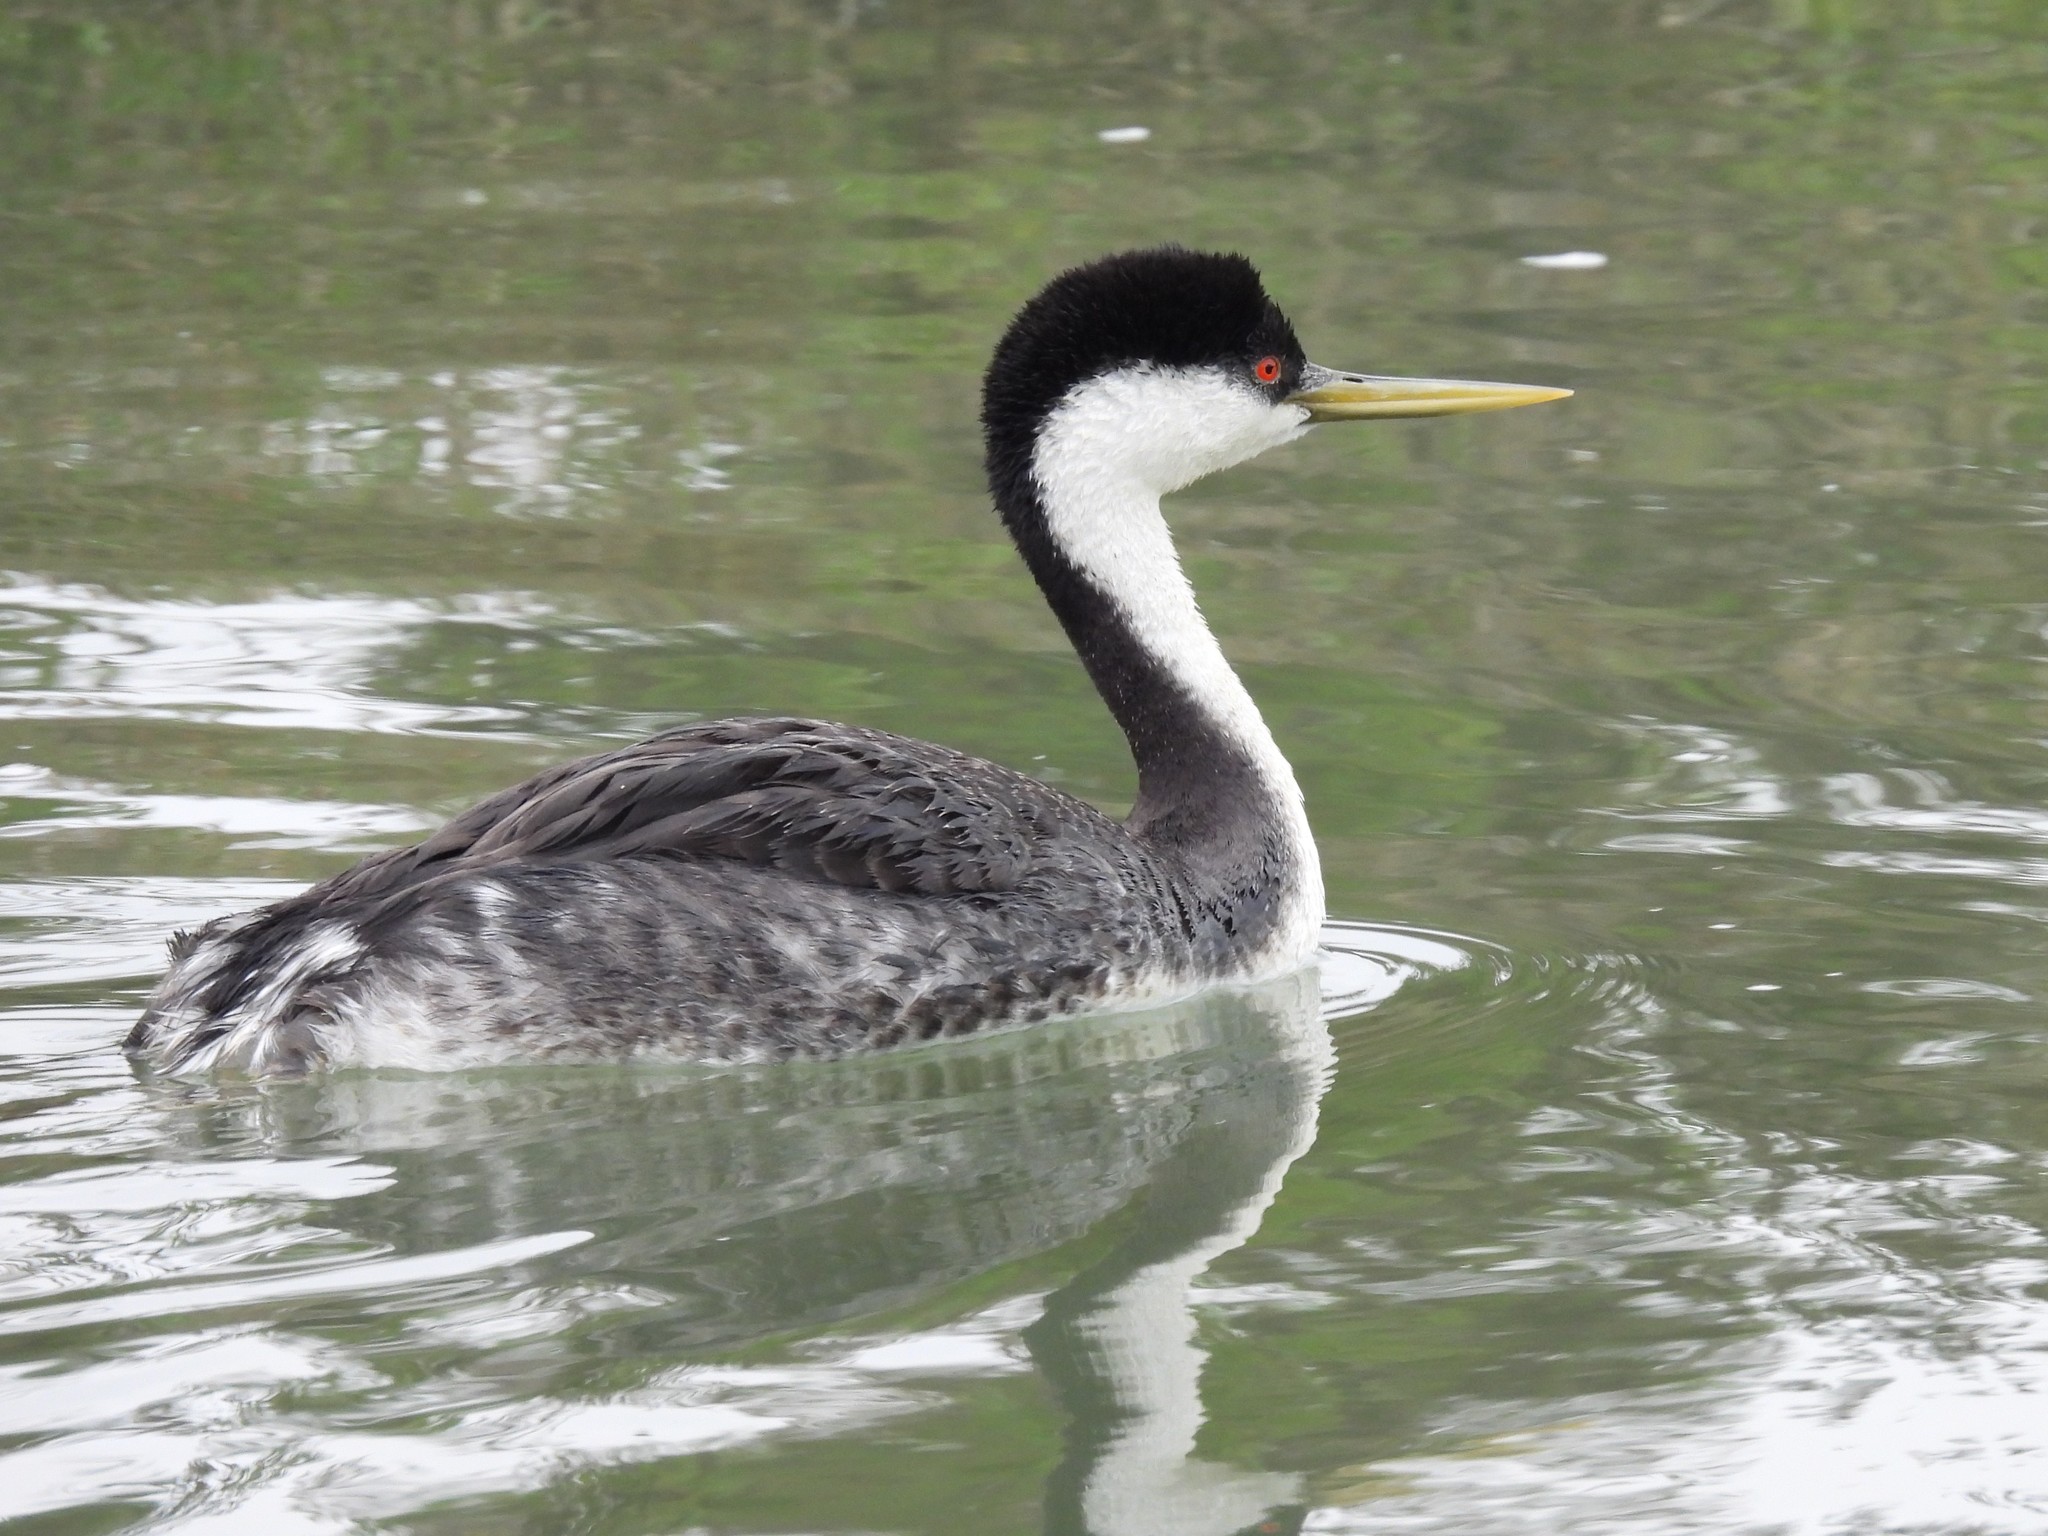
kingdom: Animalia
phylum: Chordata
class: Aves
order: Podicipediformes
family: Podicipedidae
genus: Aechmophorus
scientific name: Aechmophorus occidentalis
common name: Western grebe
